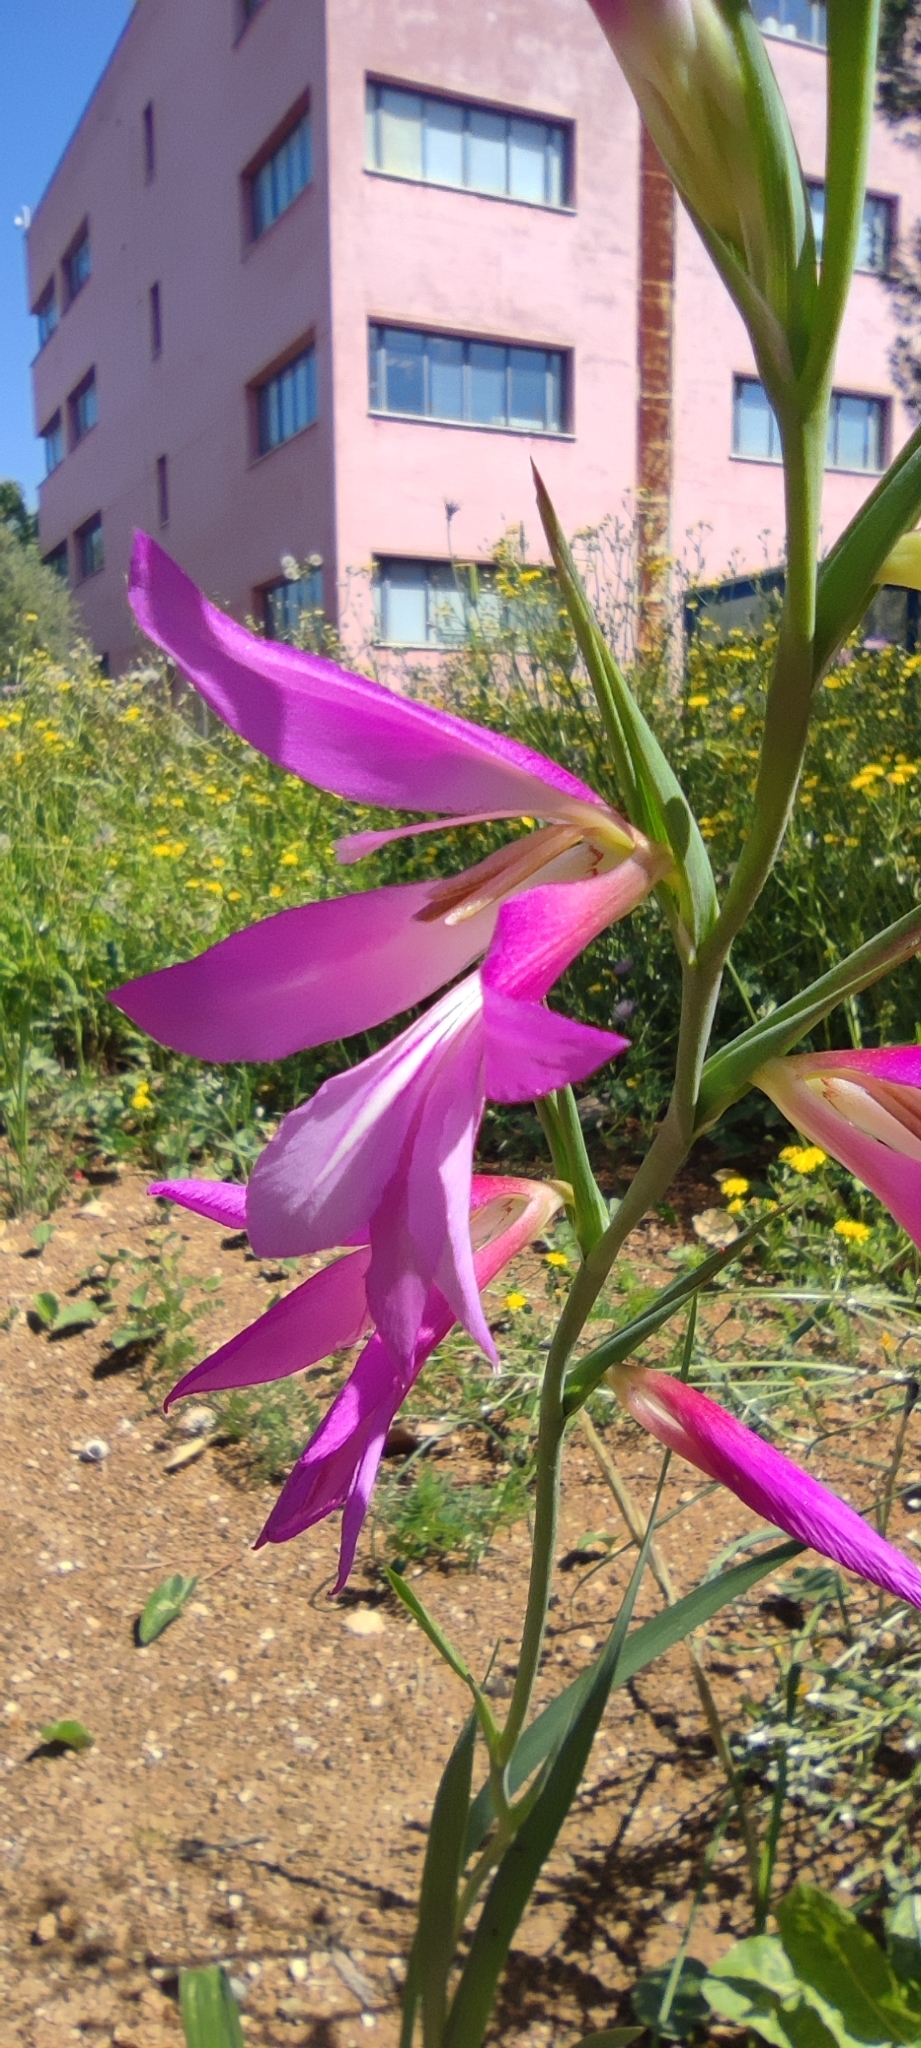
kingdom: Plantae
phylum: Tracheophyta
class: Liliopsida
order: Asparagales
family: Iridaceae
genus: Gladiolus
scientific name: Gladiolus italicus
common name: Field gladiolus
